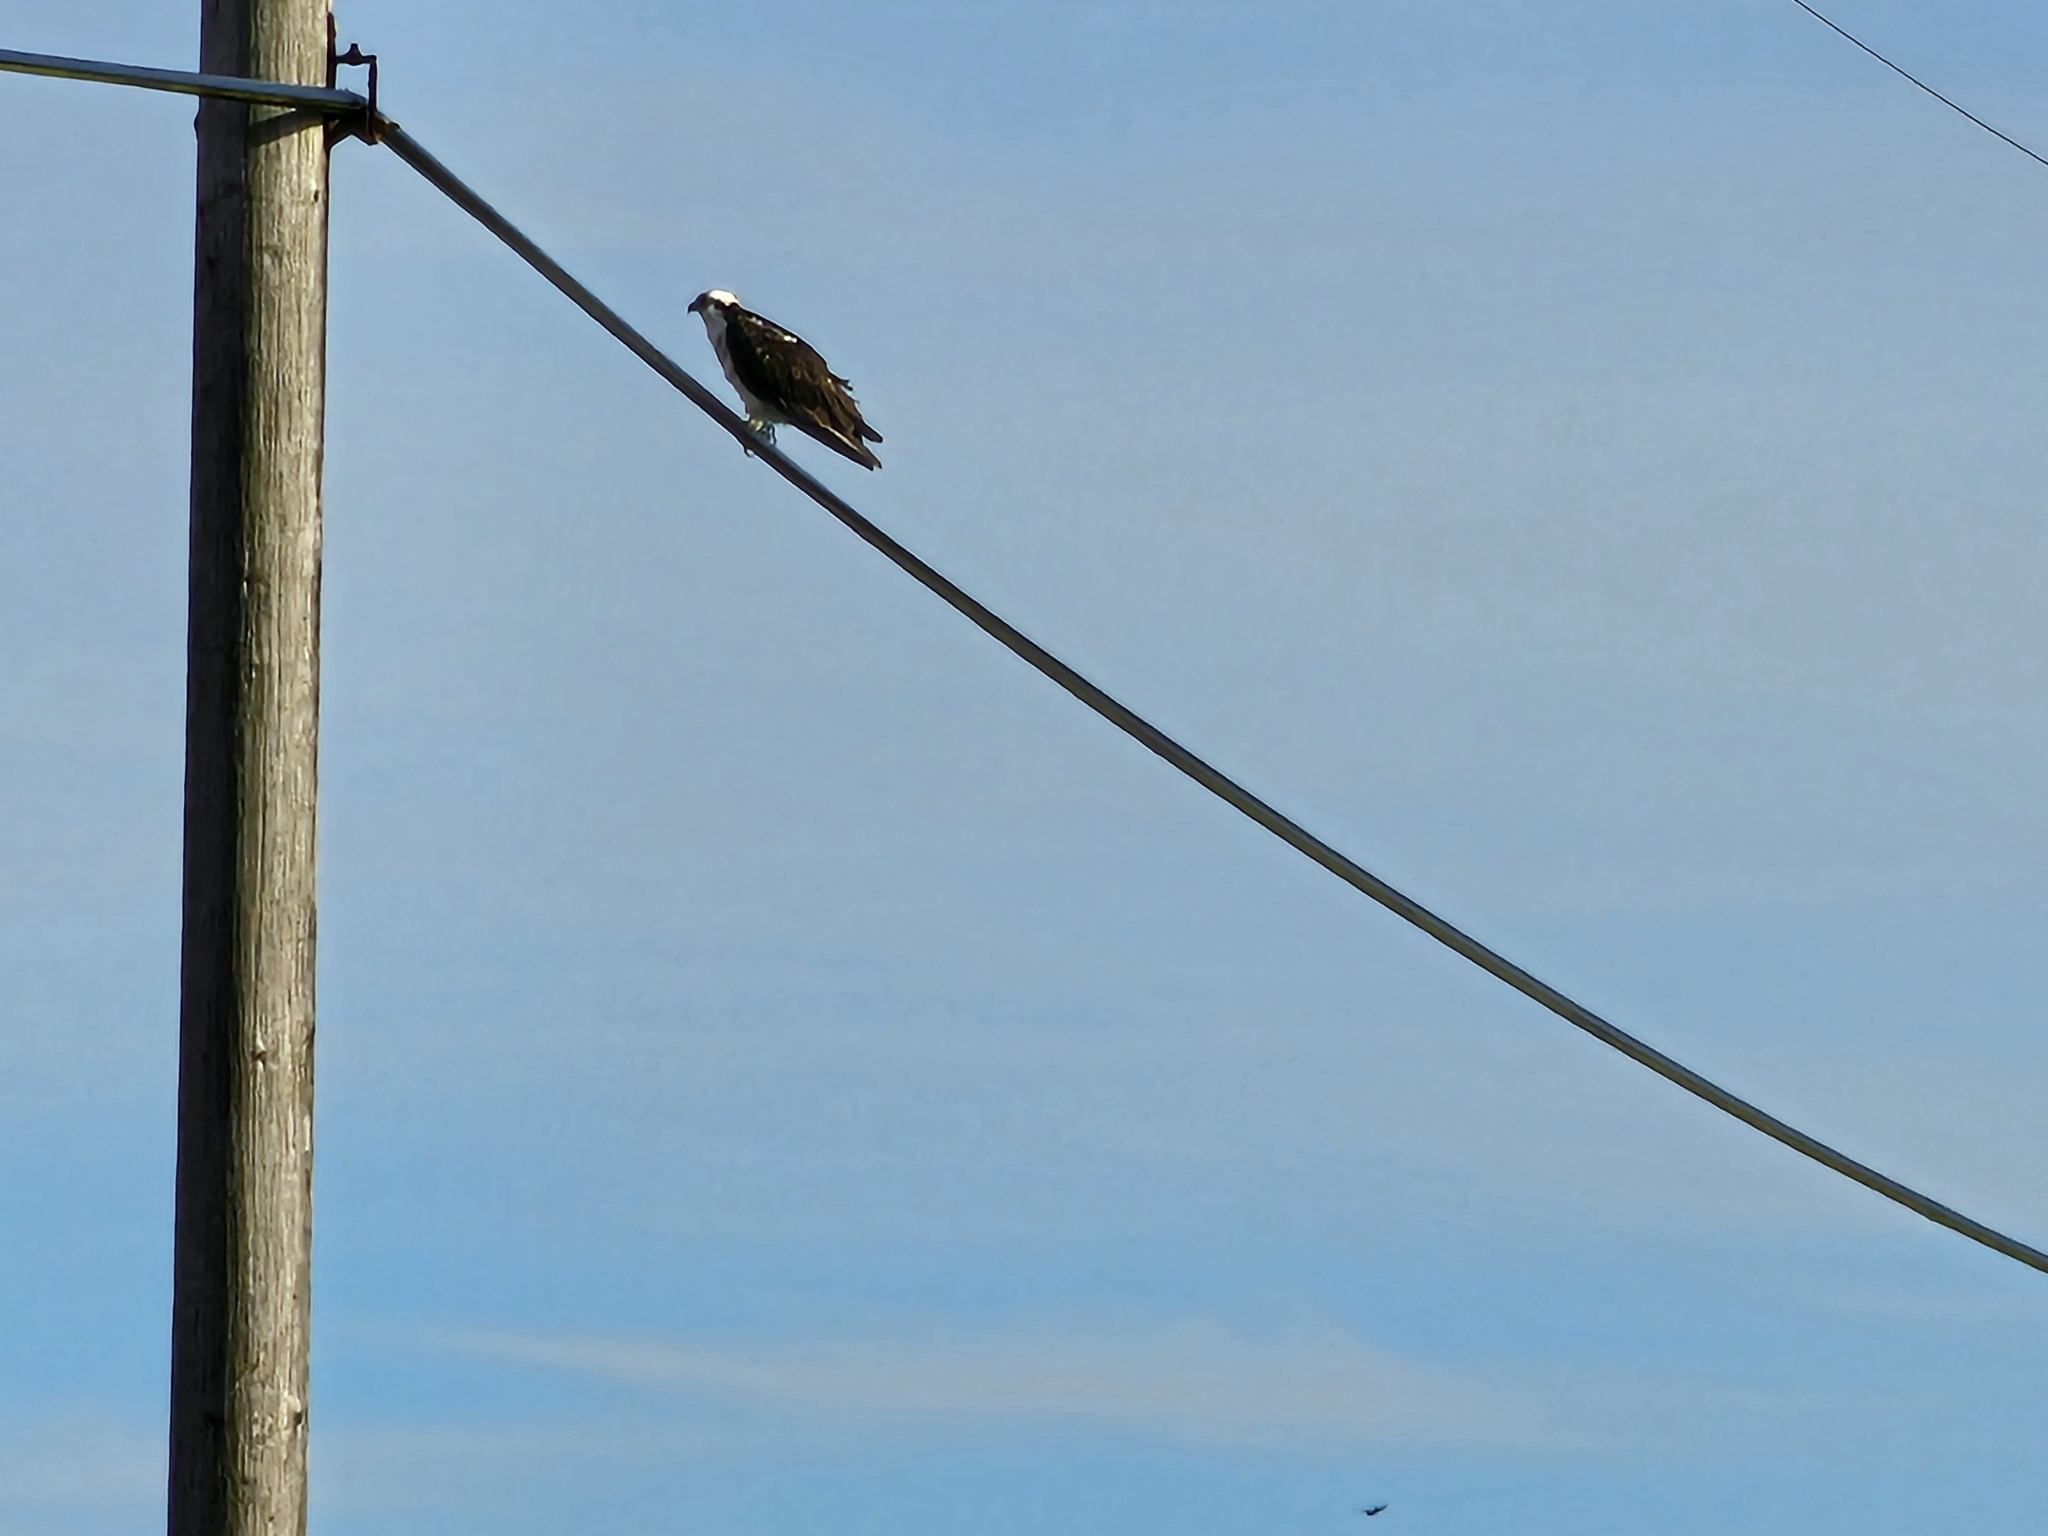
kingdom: Animalia
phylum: Chordata
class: Aves
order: Accipitriformes
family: Pandionidae
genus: Pandion
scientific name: Pandion haliaetus
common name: Osprey
